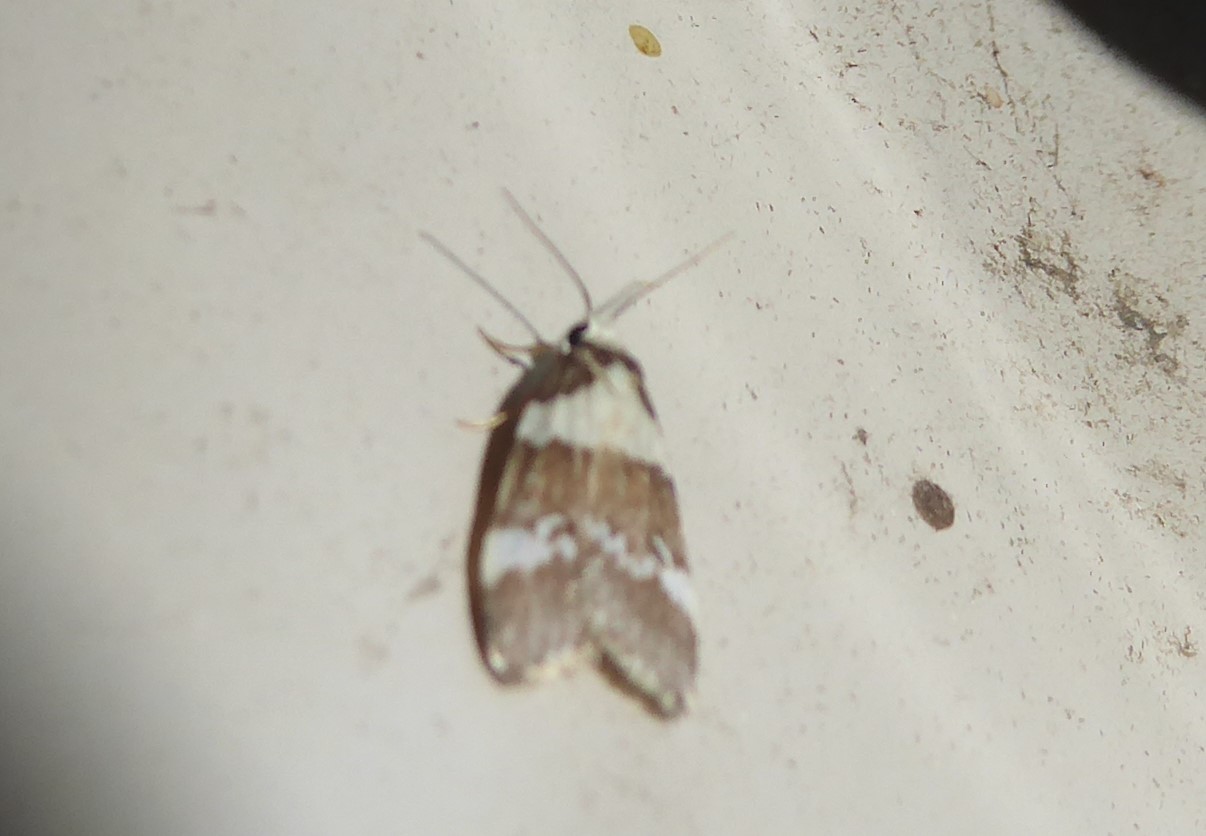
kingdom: Animalia
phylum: Arthropoda
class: Insecta
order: Lepidoptera
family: Erebidae
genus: Halone
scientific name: Halone sejuncta
